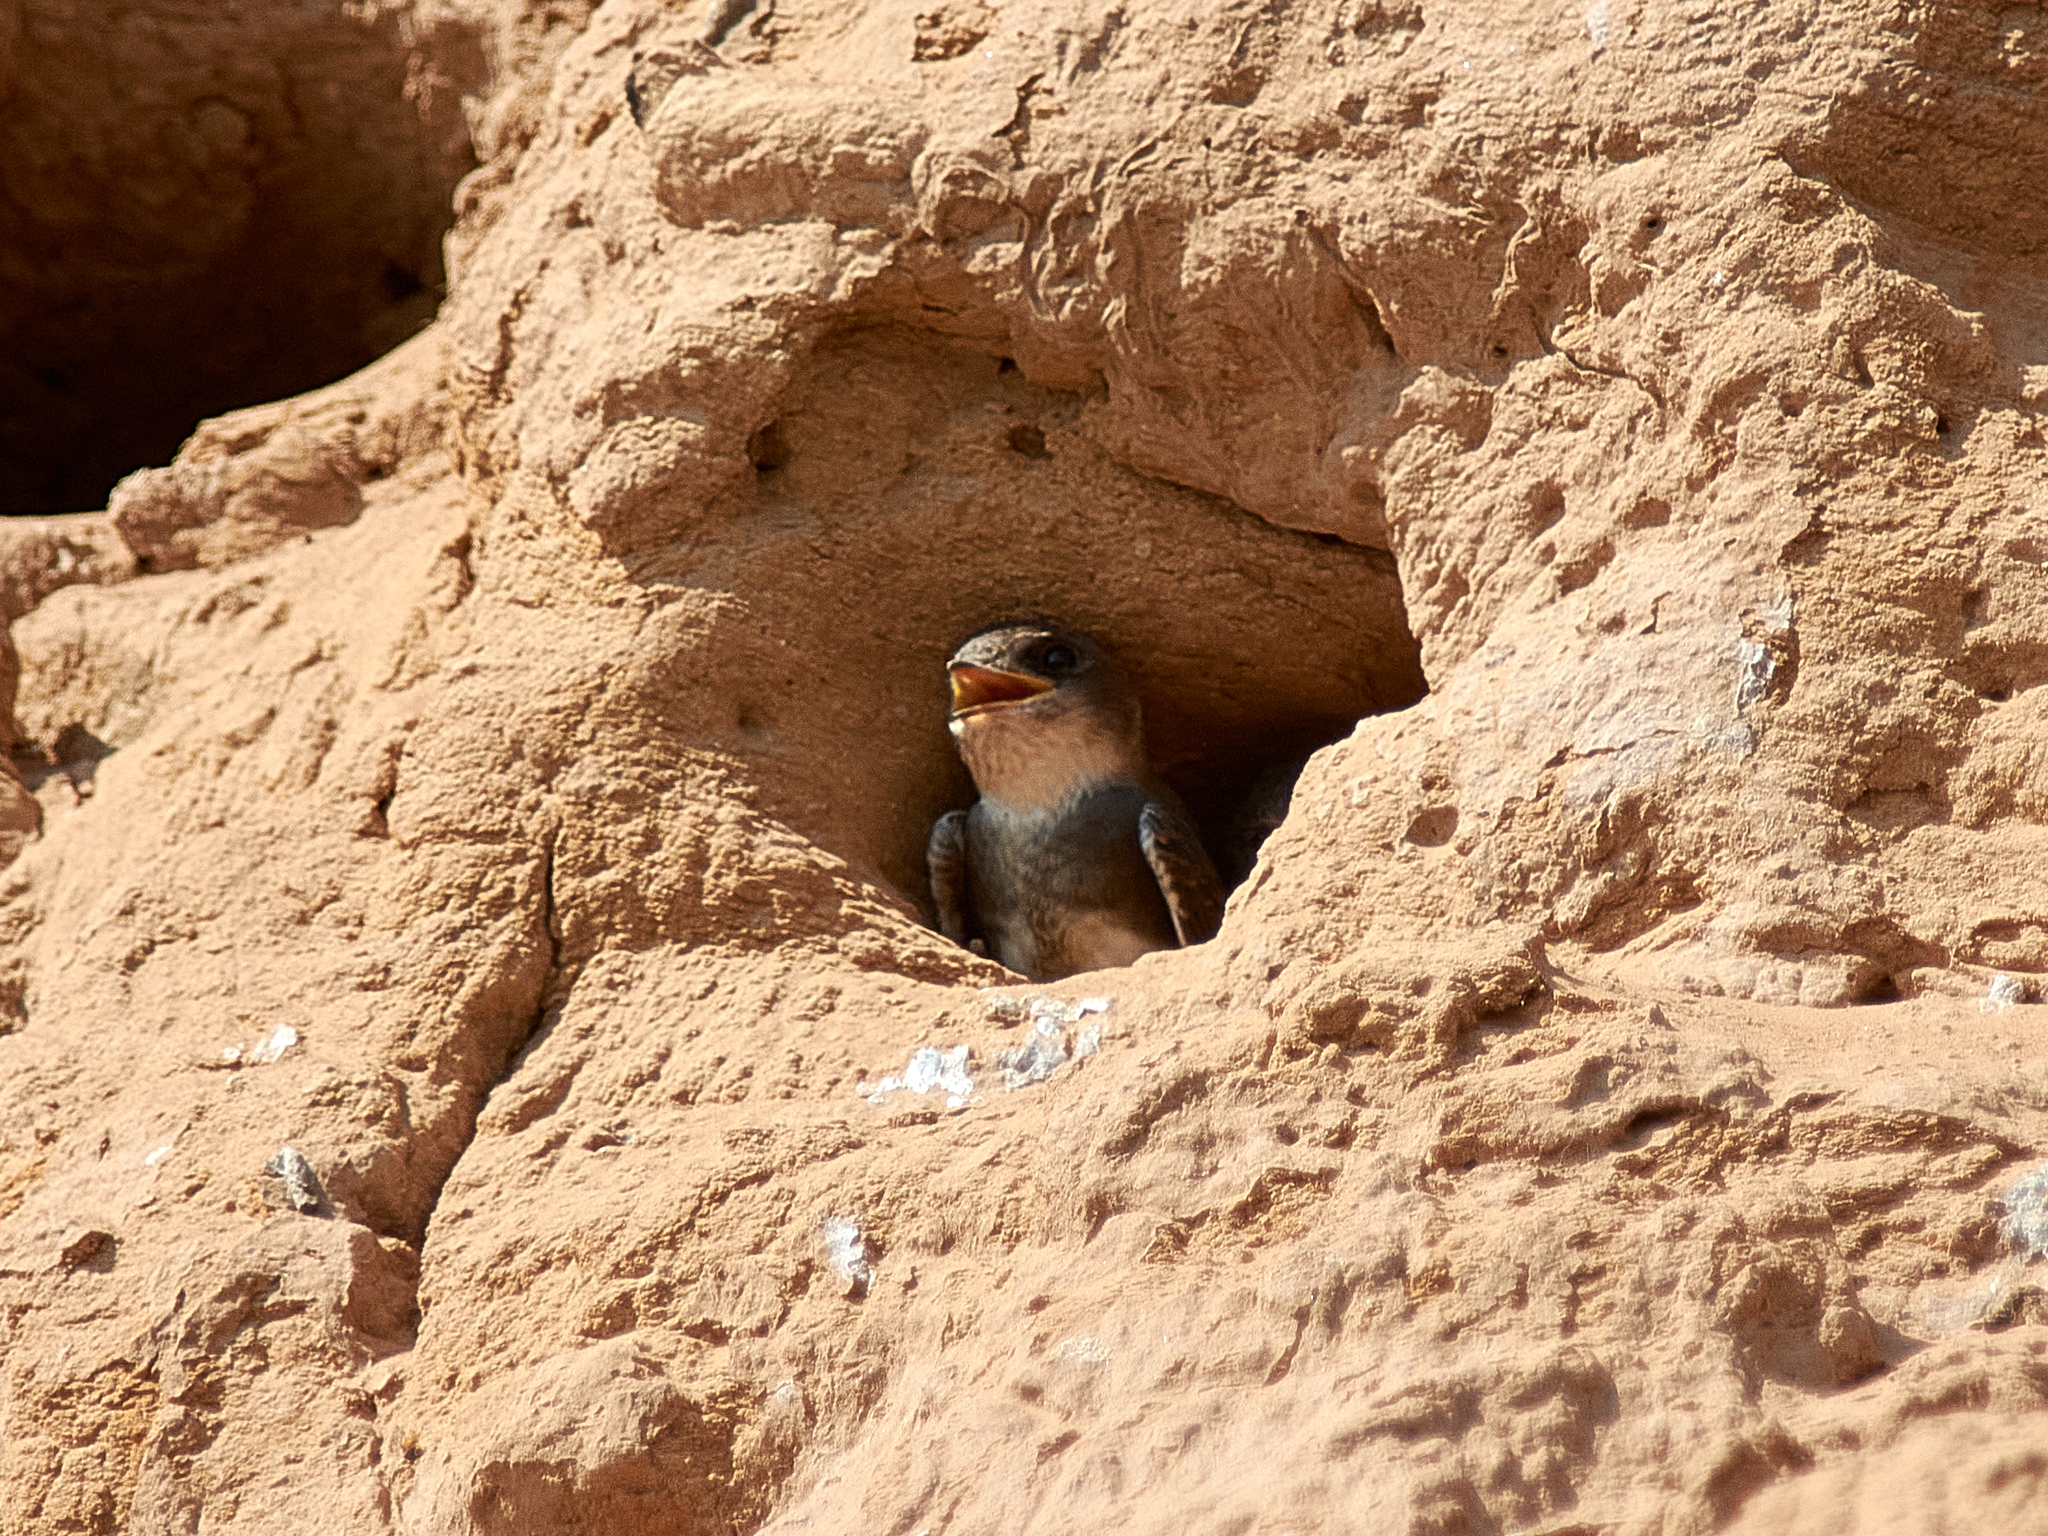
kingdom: Animalia
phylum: Chordata
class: Aves
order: Passeriformes
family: Hirundinidae
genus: Riparia
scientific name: Riparia riparia
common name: Sand martin
